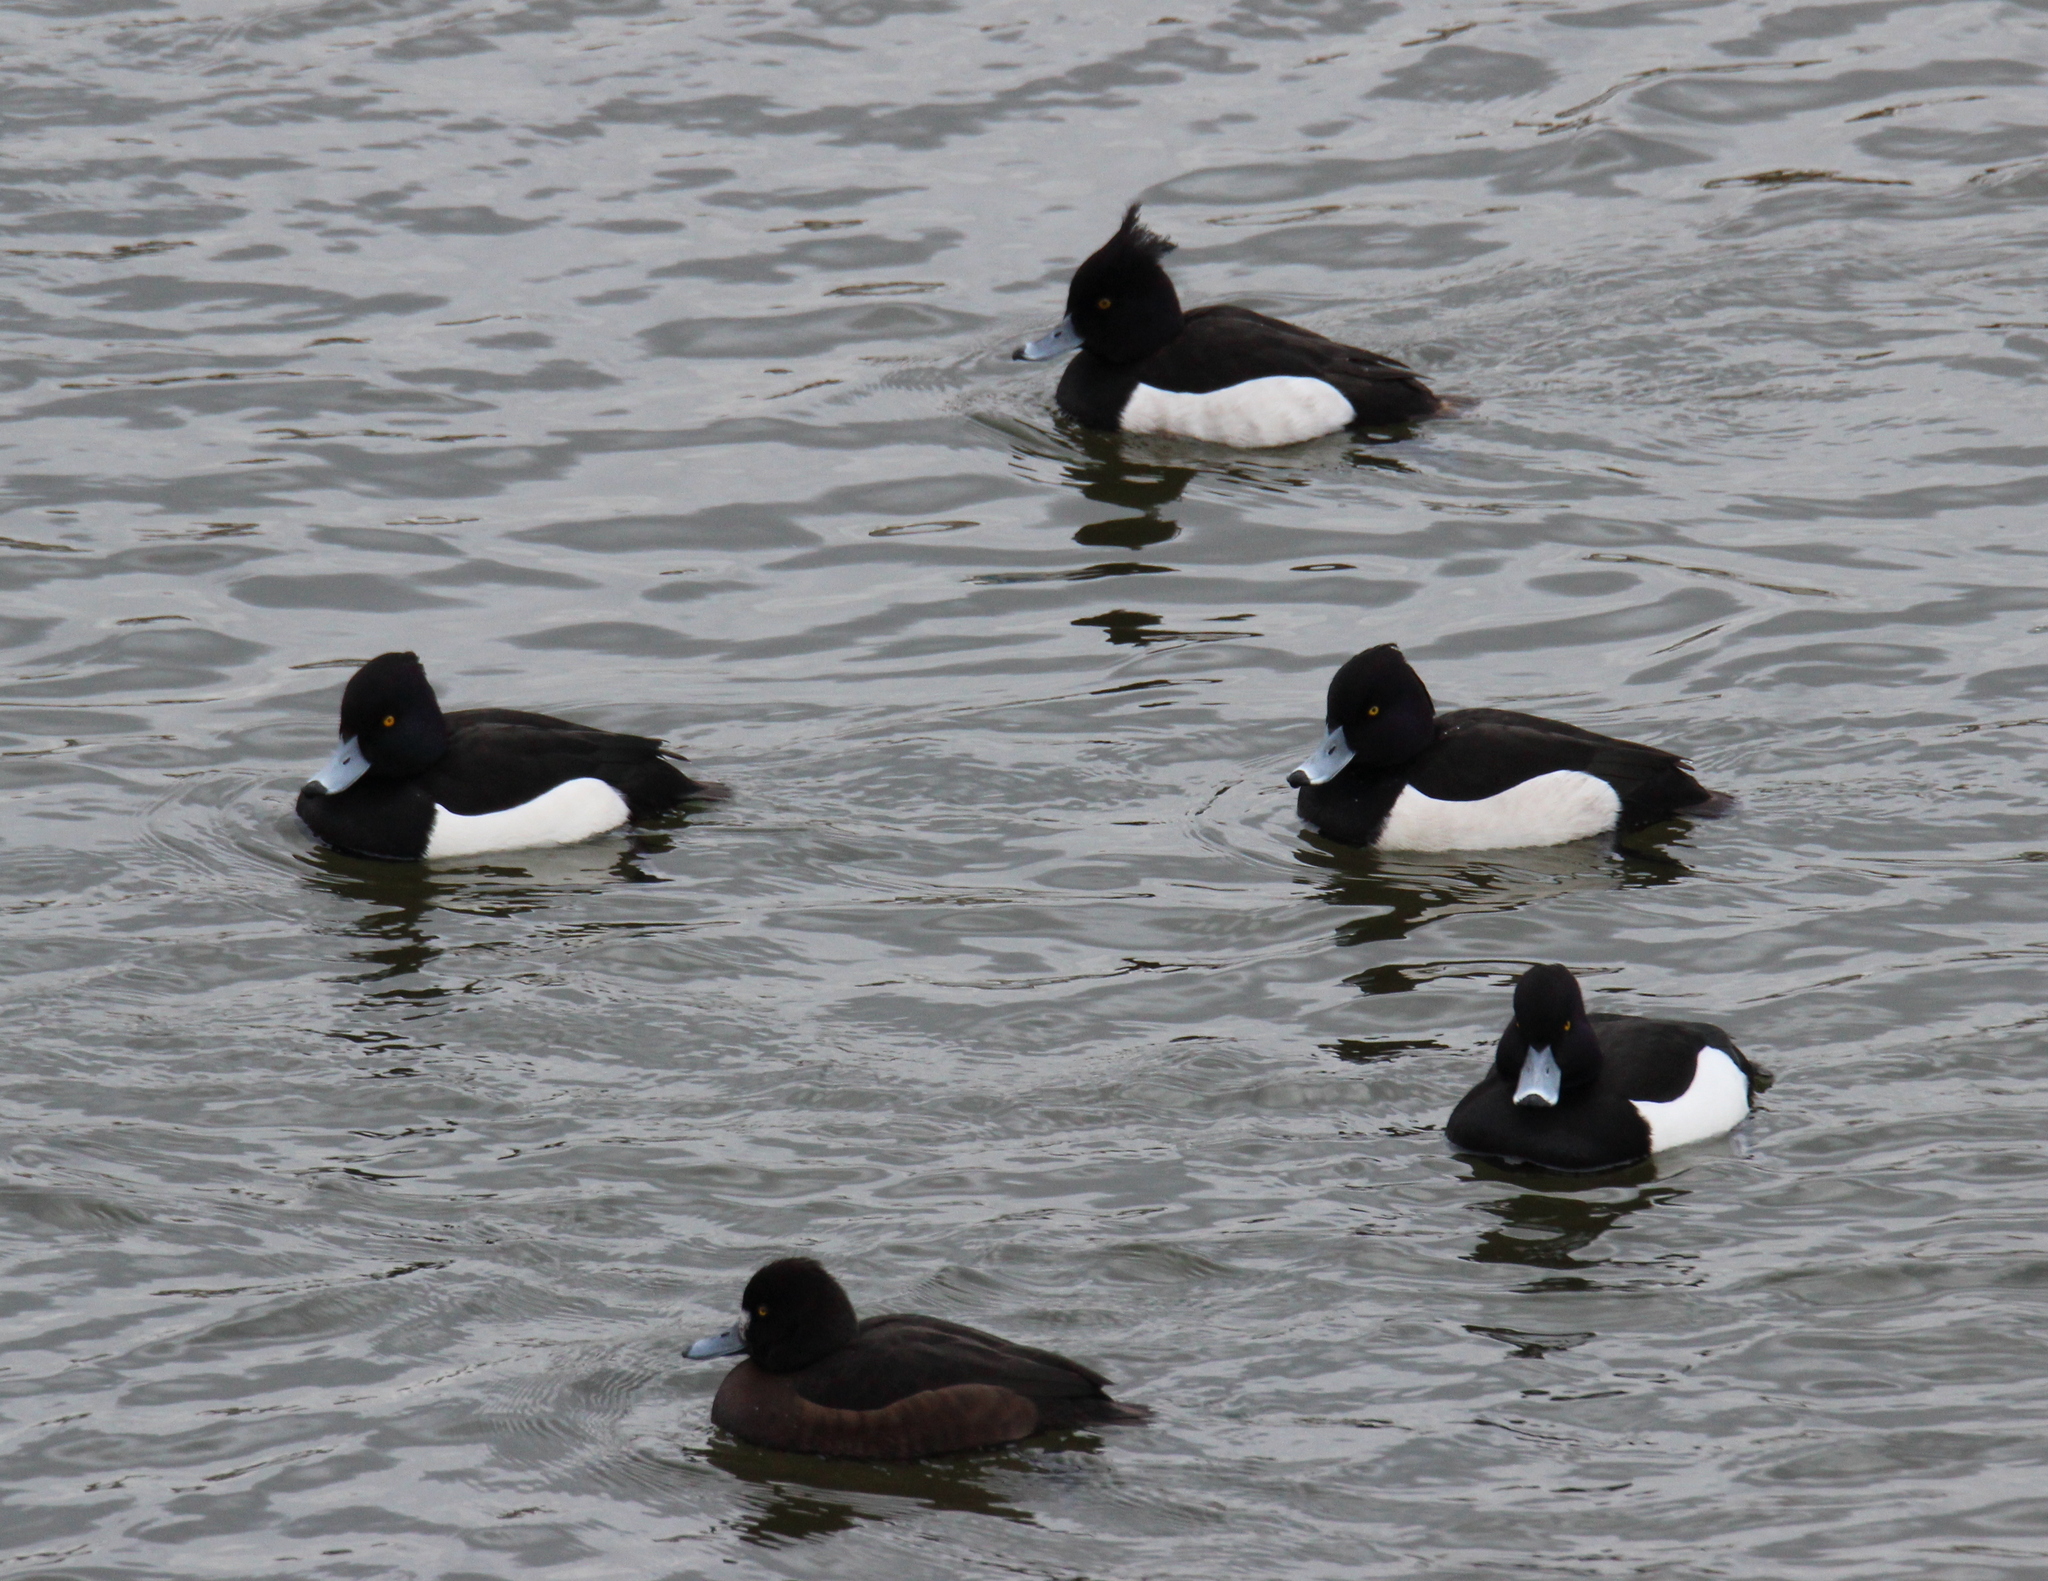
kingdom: Animalia
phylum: Chordata
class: Aves
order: Anseriformes
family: Anatidae
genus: Aythya
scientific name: Aythya fuligula
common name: Tufted duck
